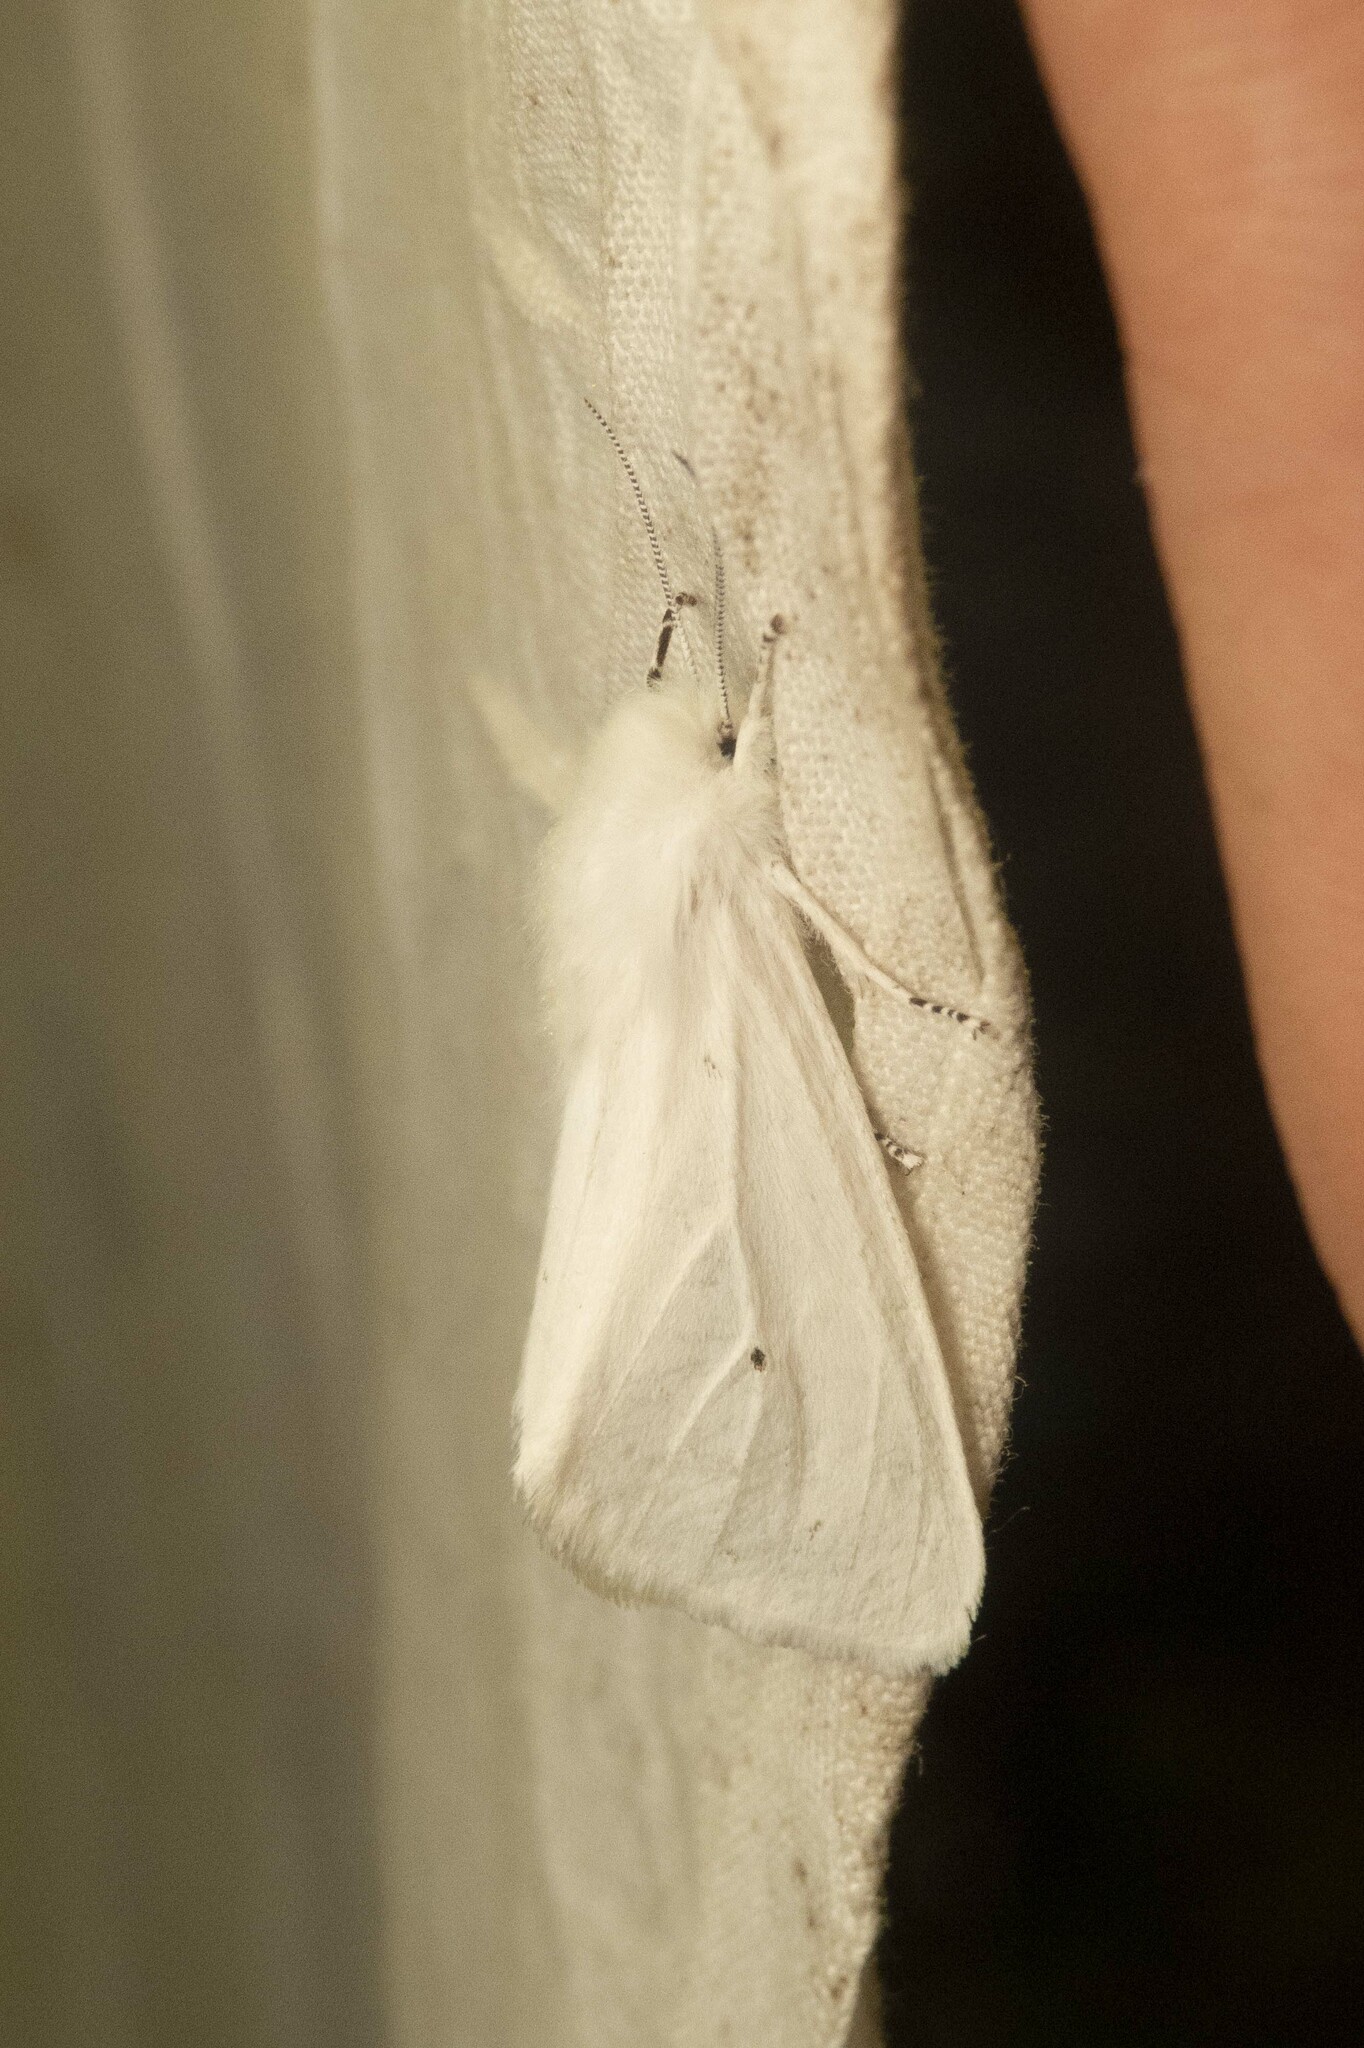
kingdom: Animalia
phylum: Arthropoda
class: Insecta
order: Lepidoptera
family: Erebidae
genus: Spilosoma
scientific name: Spilosoma virginica
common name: Virginia tiger moth
